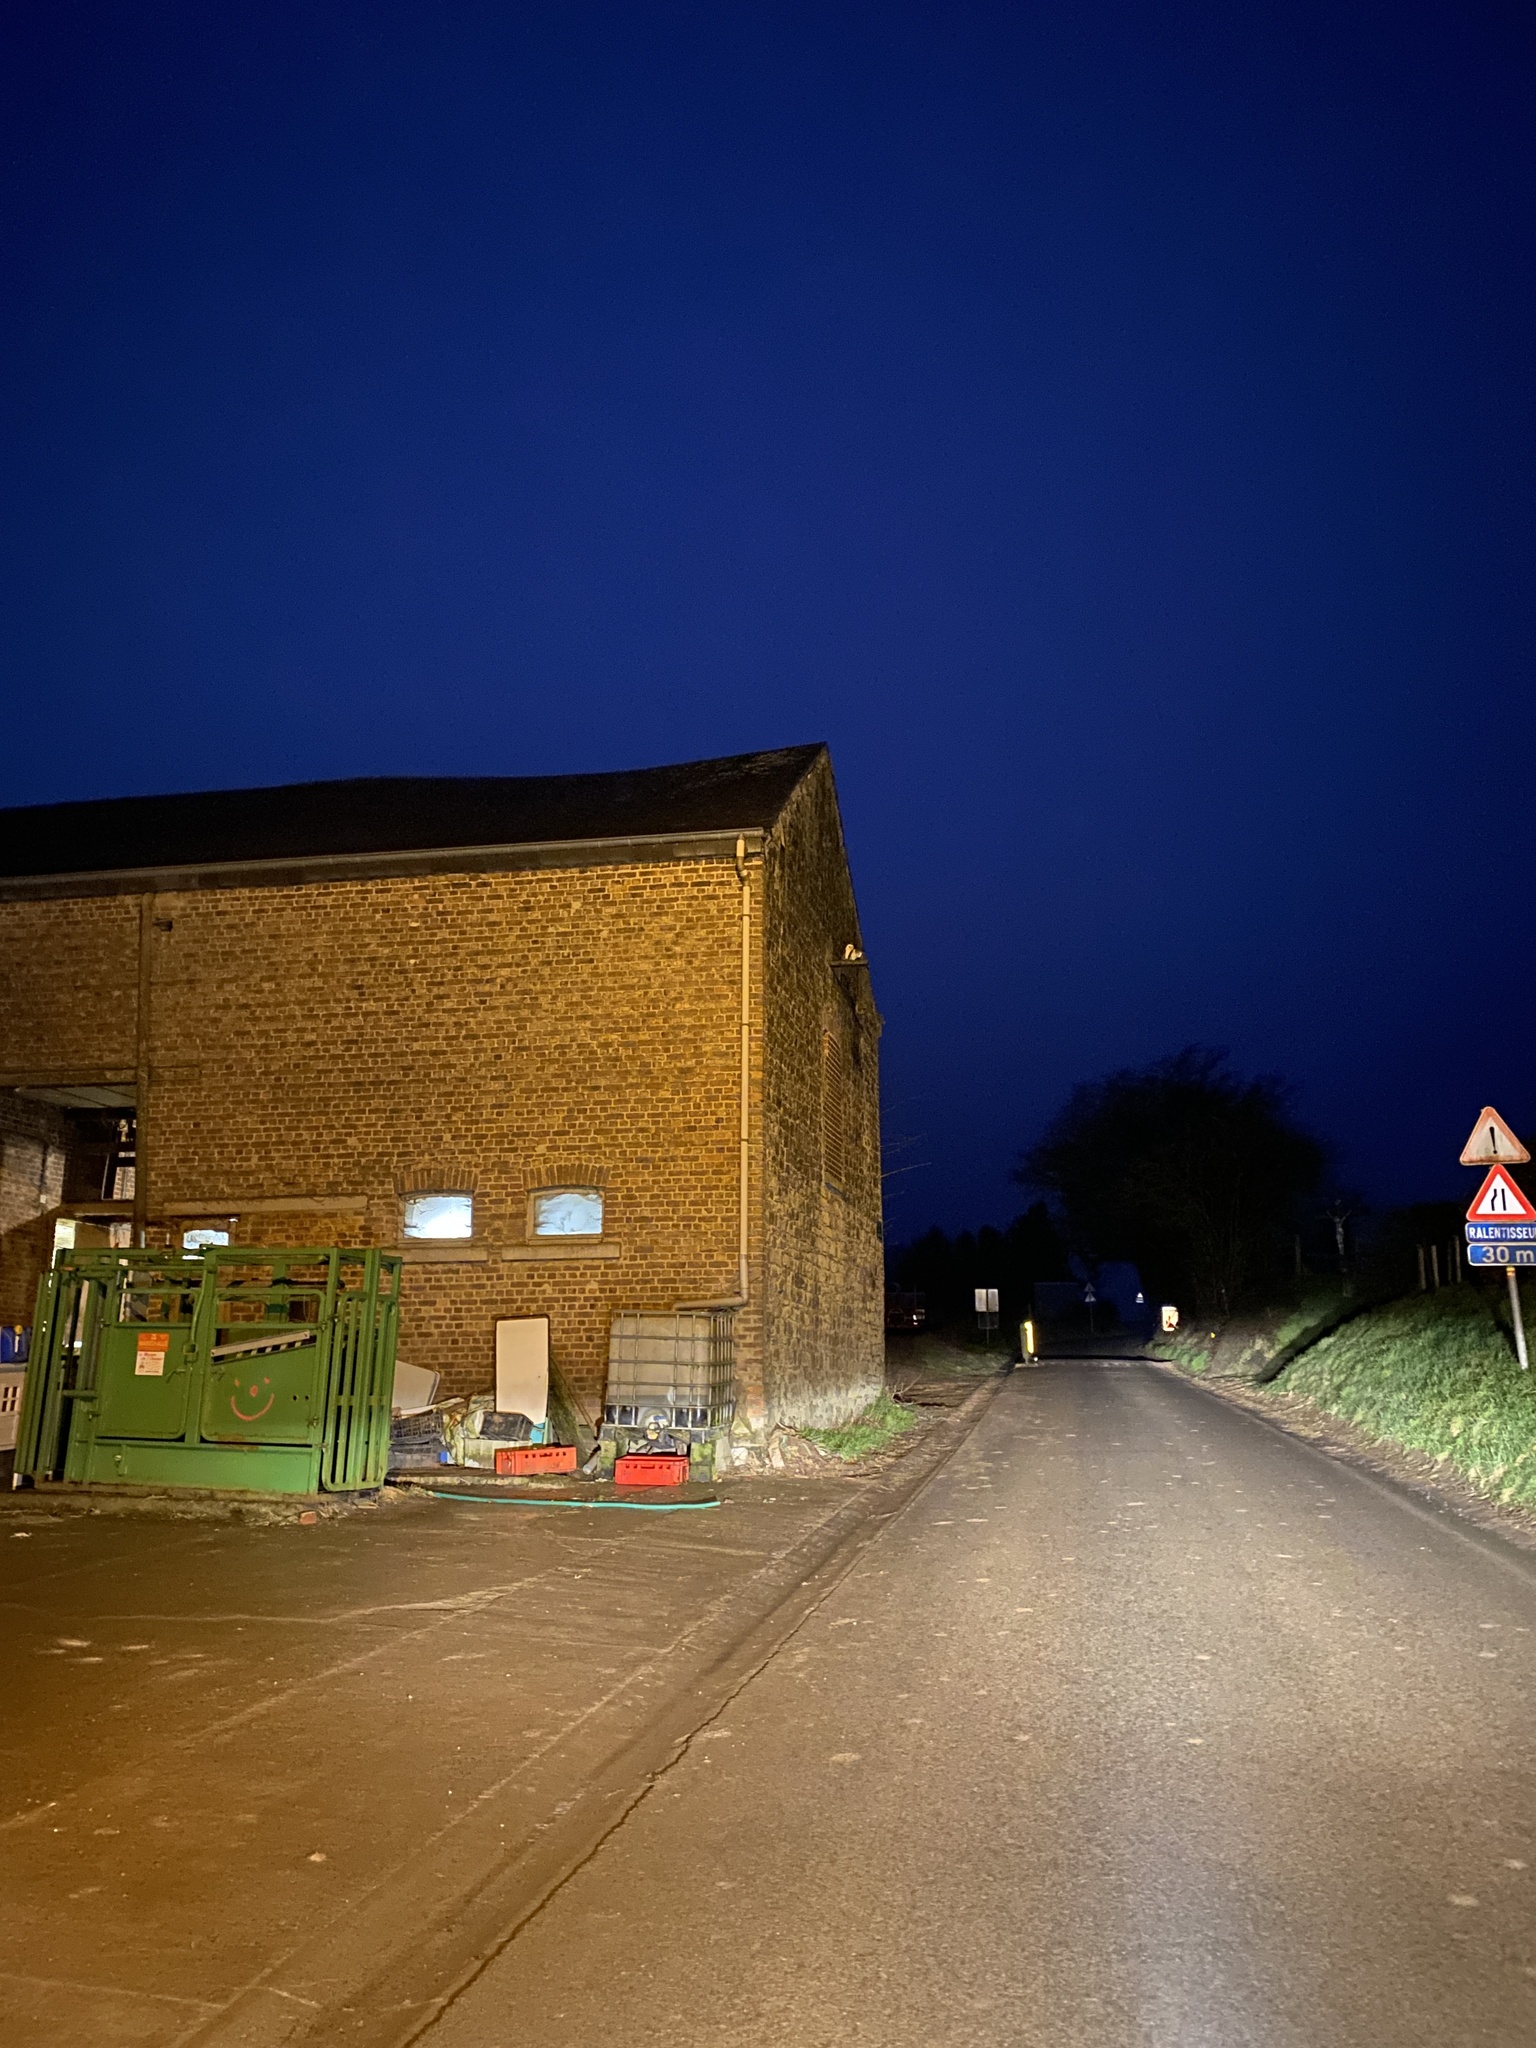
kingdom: Animalia
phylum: Chordata
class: Aves
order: Strigiformes
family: Tytonidae
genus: Tyto
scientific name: Tyto alba
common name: Barn owl
